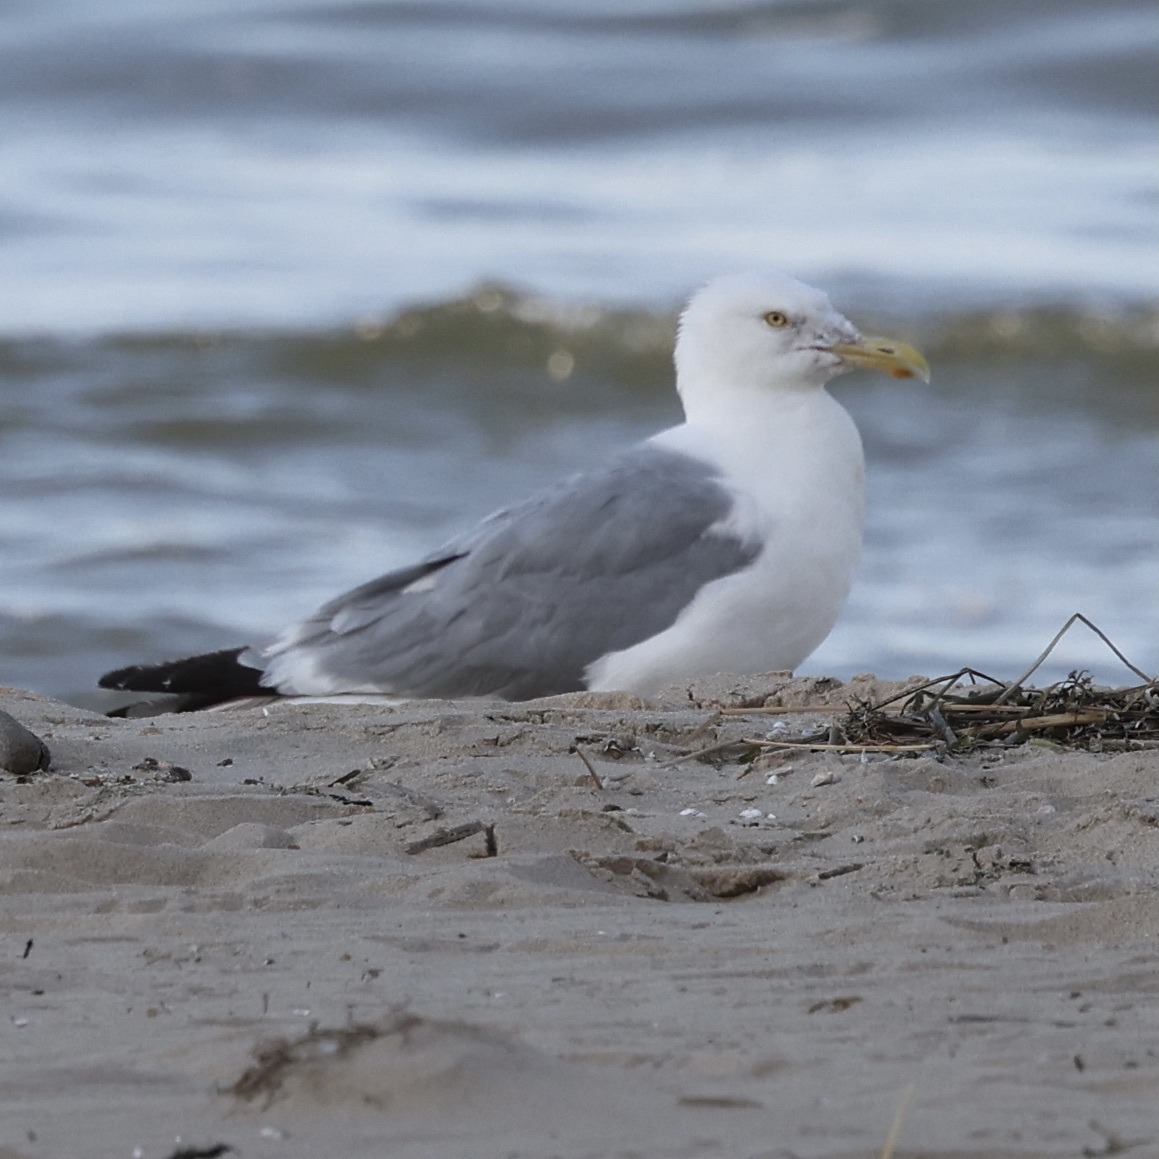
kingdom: Animalia
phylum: Chordata
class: Aves
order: Charadriiformes
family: Laridae
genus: Larus
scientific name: Larus argentatus
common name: Herring gull
